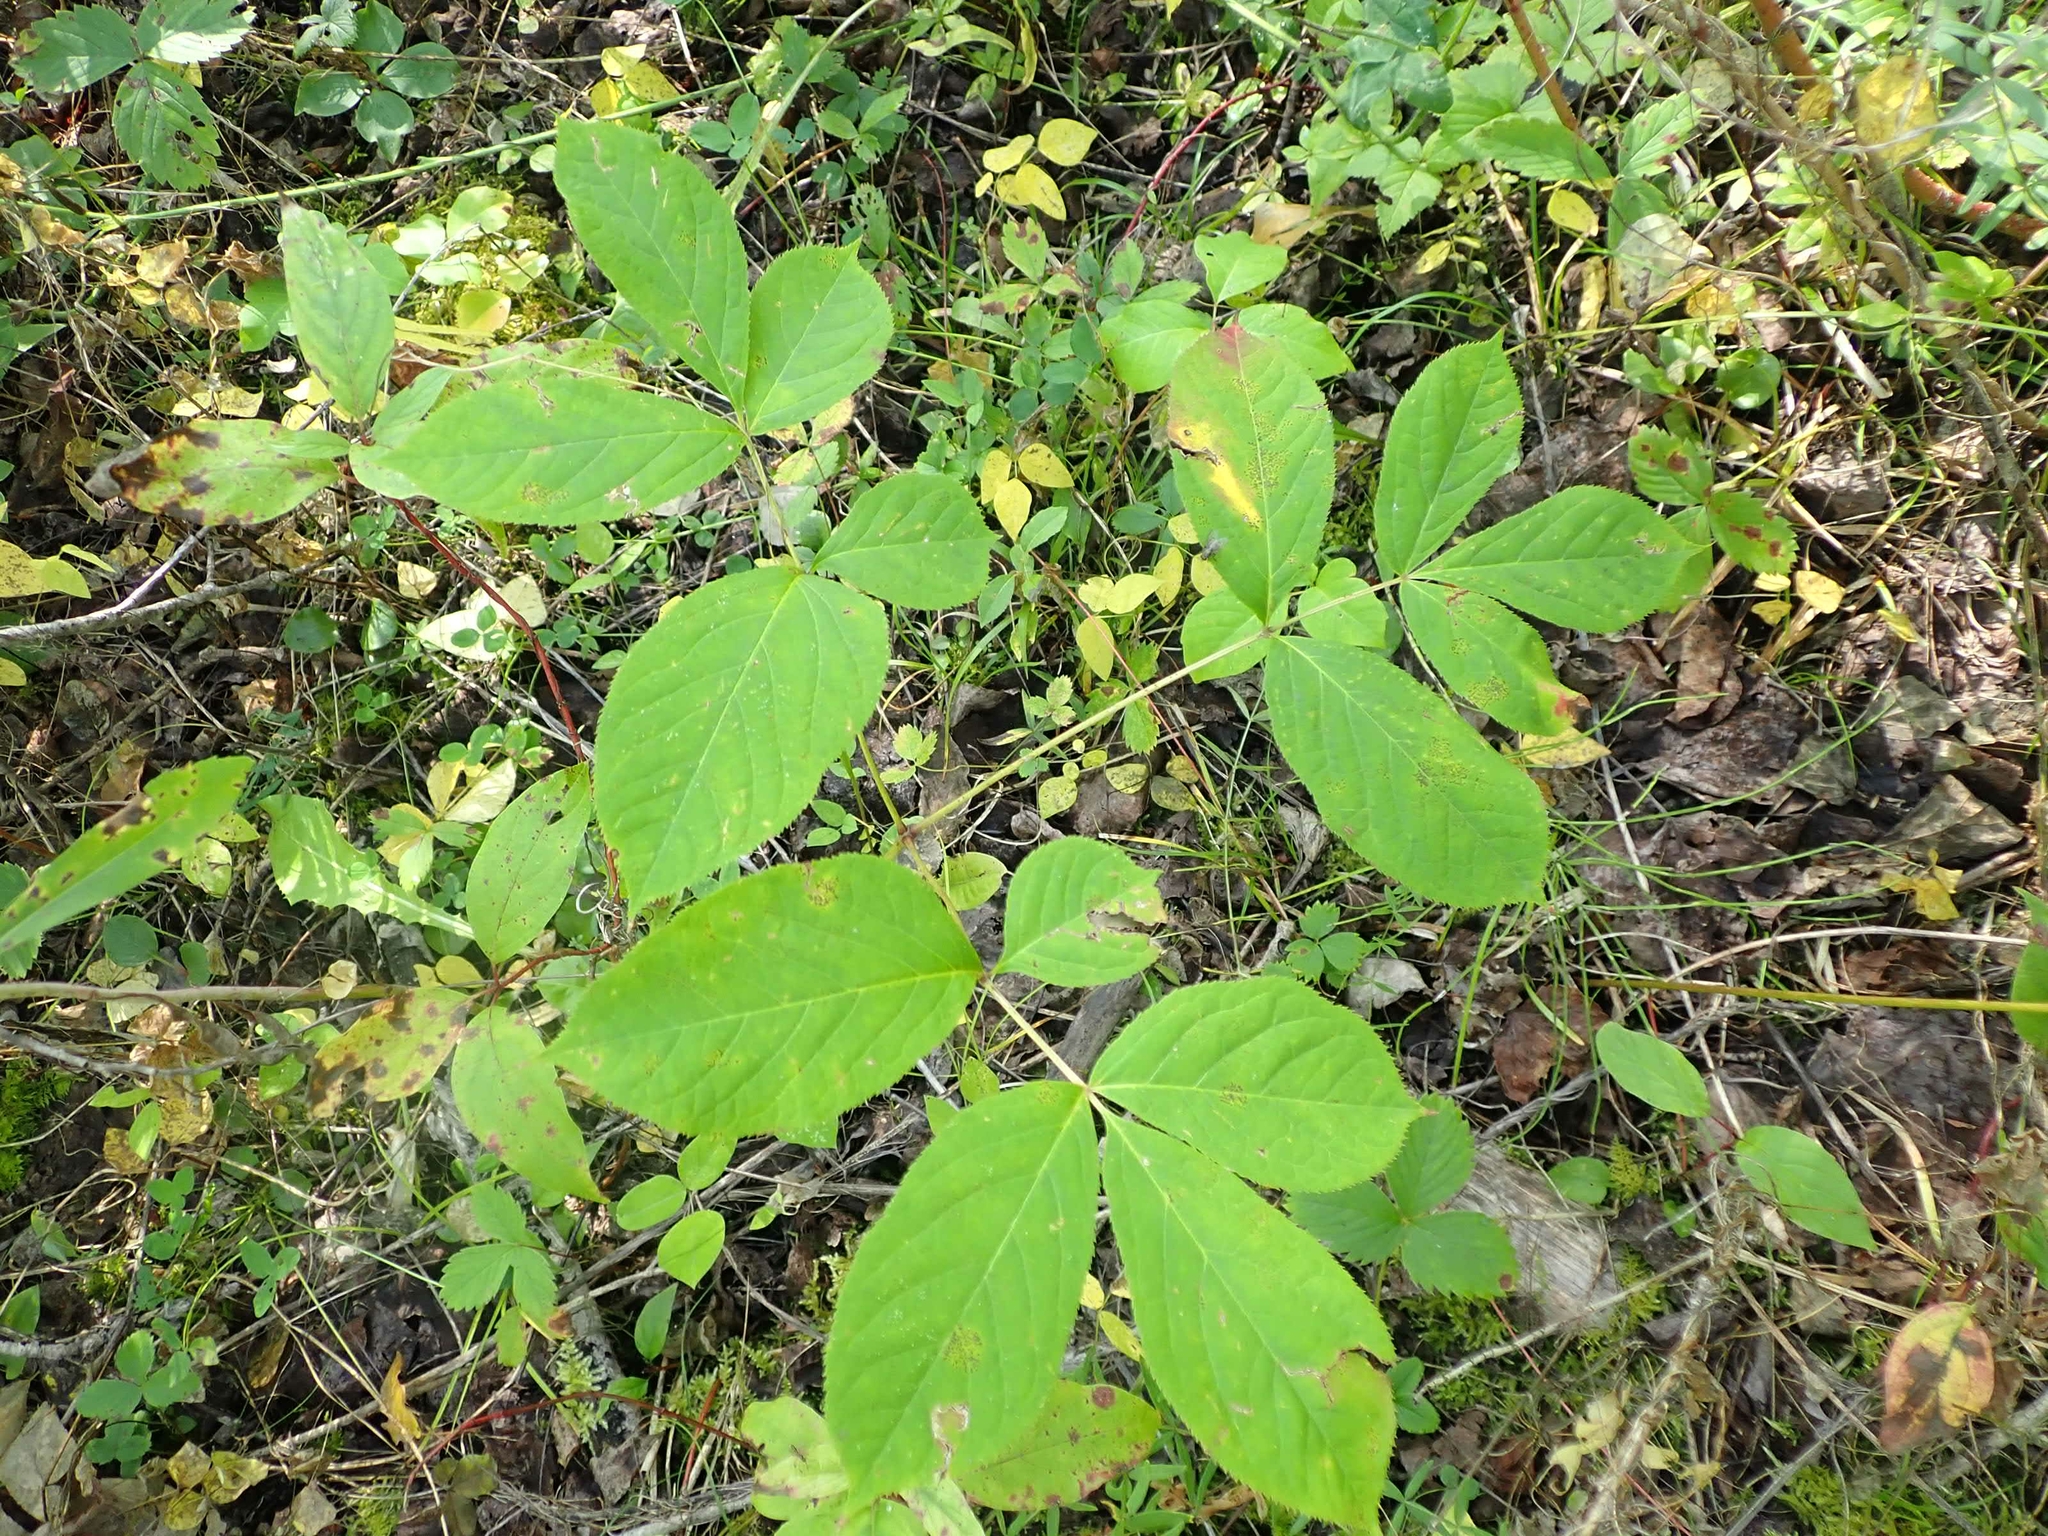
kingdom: Plantae
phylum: Tracheophyta
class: Magnoliopsida
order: Apiales
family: Araliaceae
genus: Aralia
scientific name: Aralia nudicaulis
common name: Wild sarsaparilla
